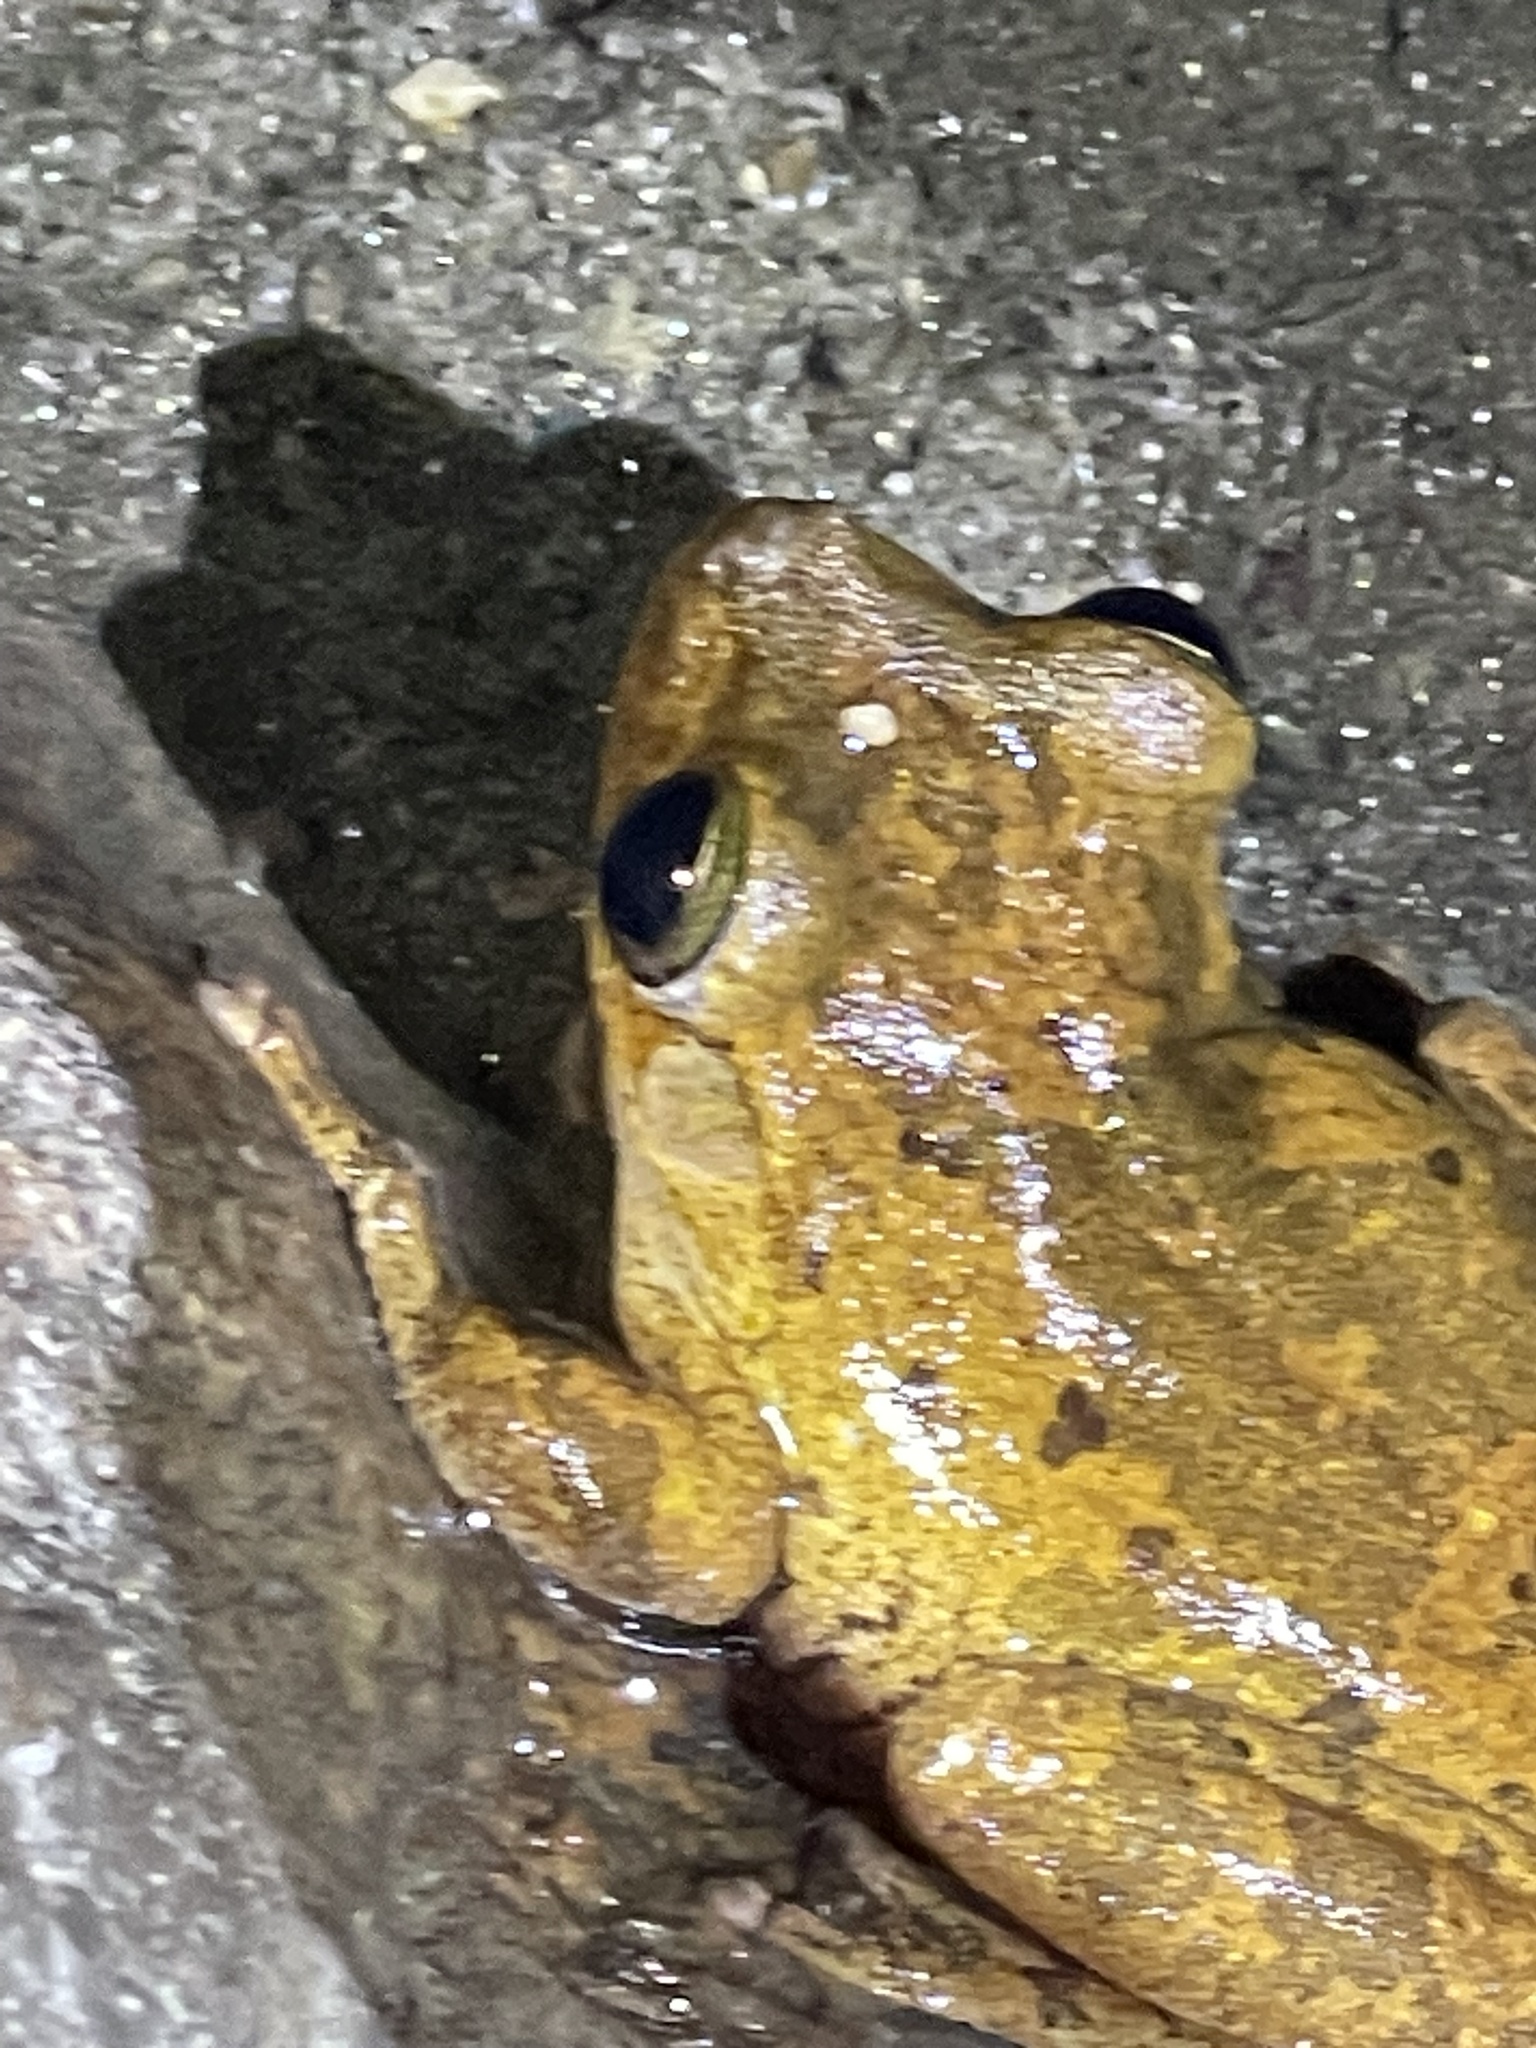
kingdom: Animalia
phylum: Chordata
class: Amphibia
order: Anura
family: Hylidae
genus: Boana
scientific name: Boana pugnax
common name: Chirique-flusse treefrog
